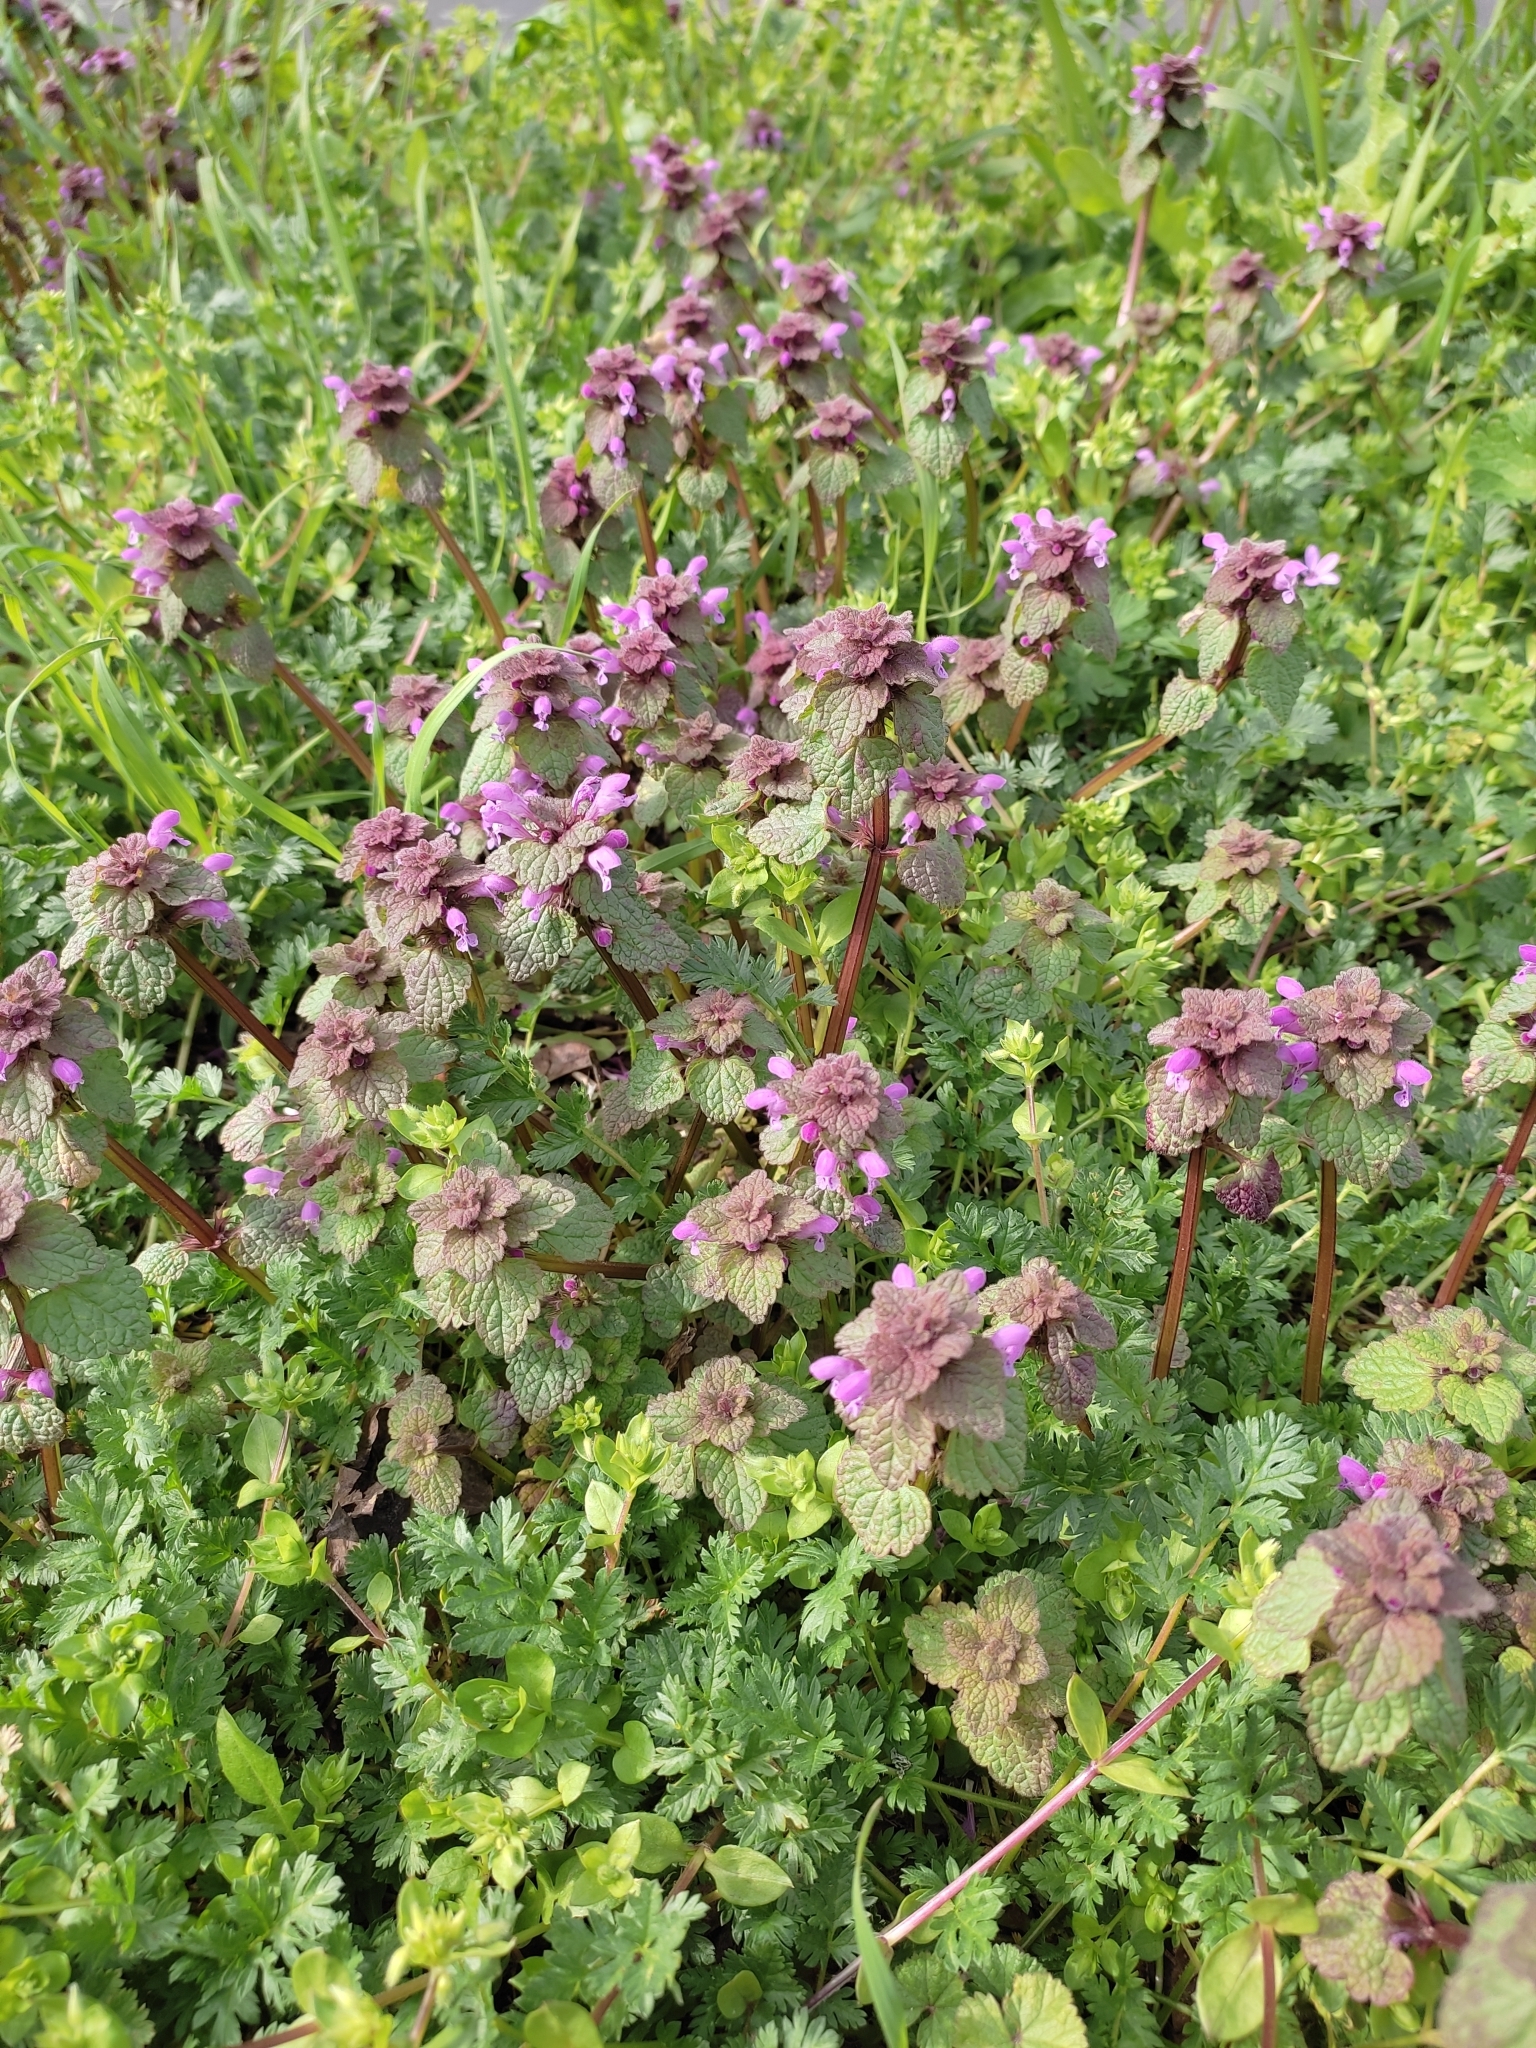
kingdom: Plantae
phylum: Tracheophyta
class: Magnoliopsida
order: Lamiales
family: Lamiaceae
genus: Lamium
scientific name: Lamium purpureum
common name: Red dead-nettle
